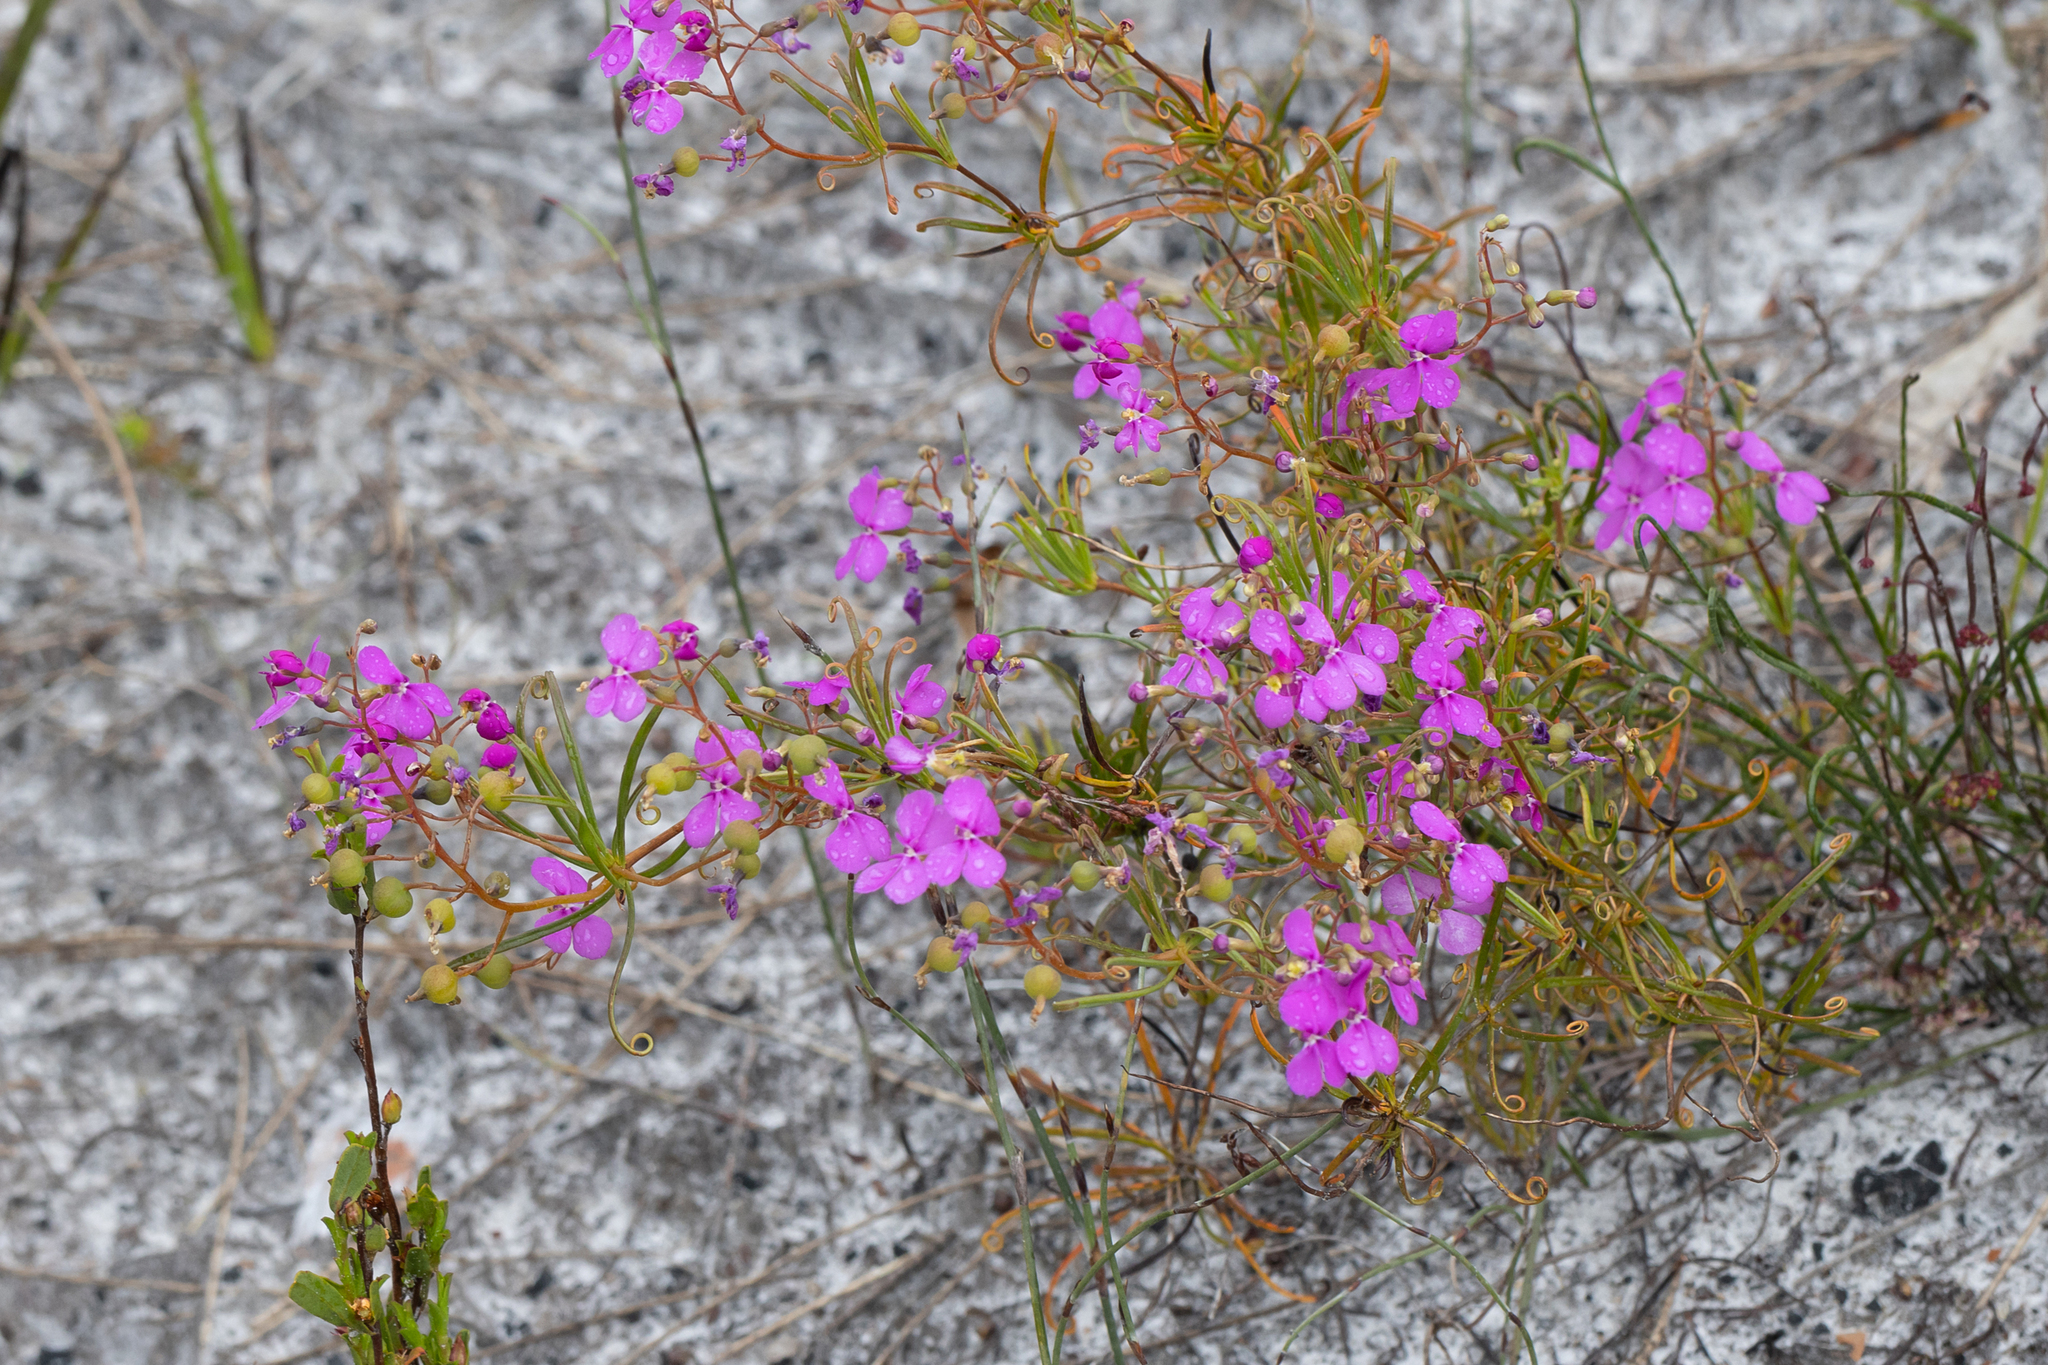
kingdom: Plantae
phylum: Tracheophyta
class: Magnoliopsida
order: Asterales
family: Stylidiaceae
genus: Stylidium
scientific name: Stylidium scandens
